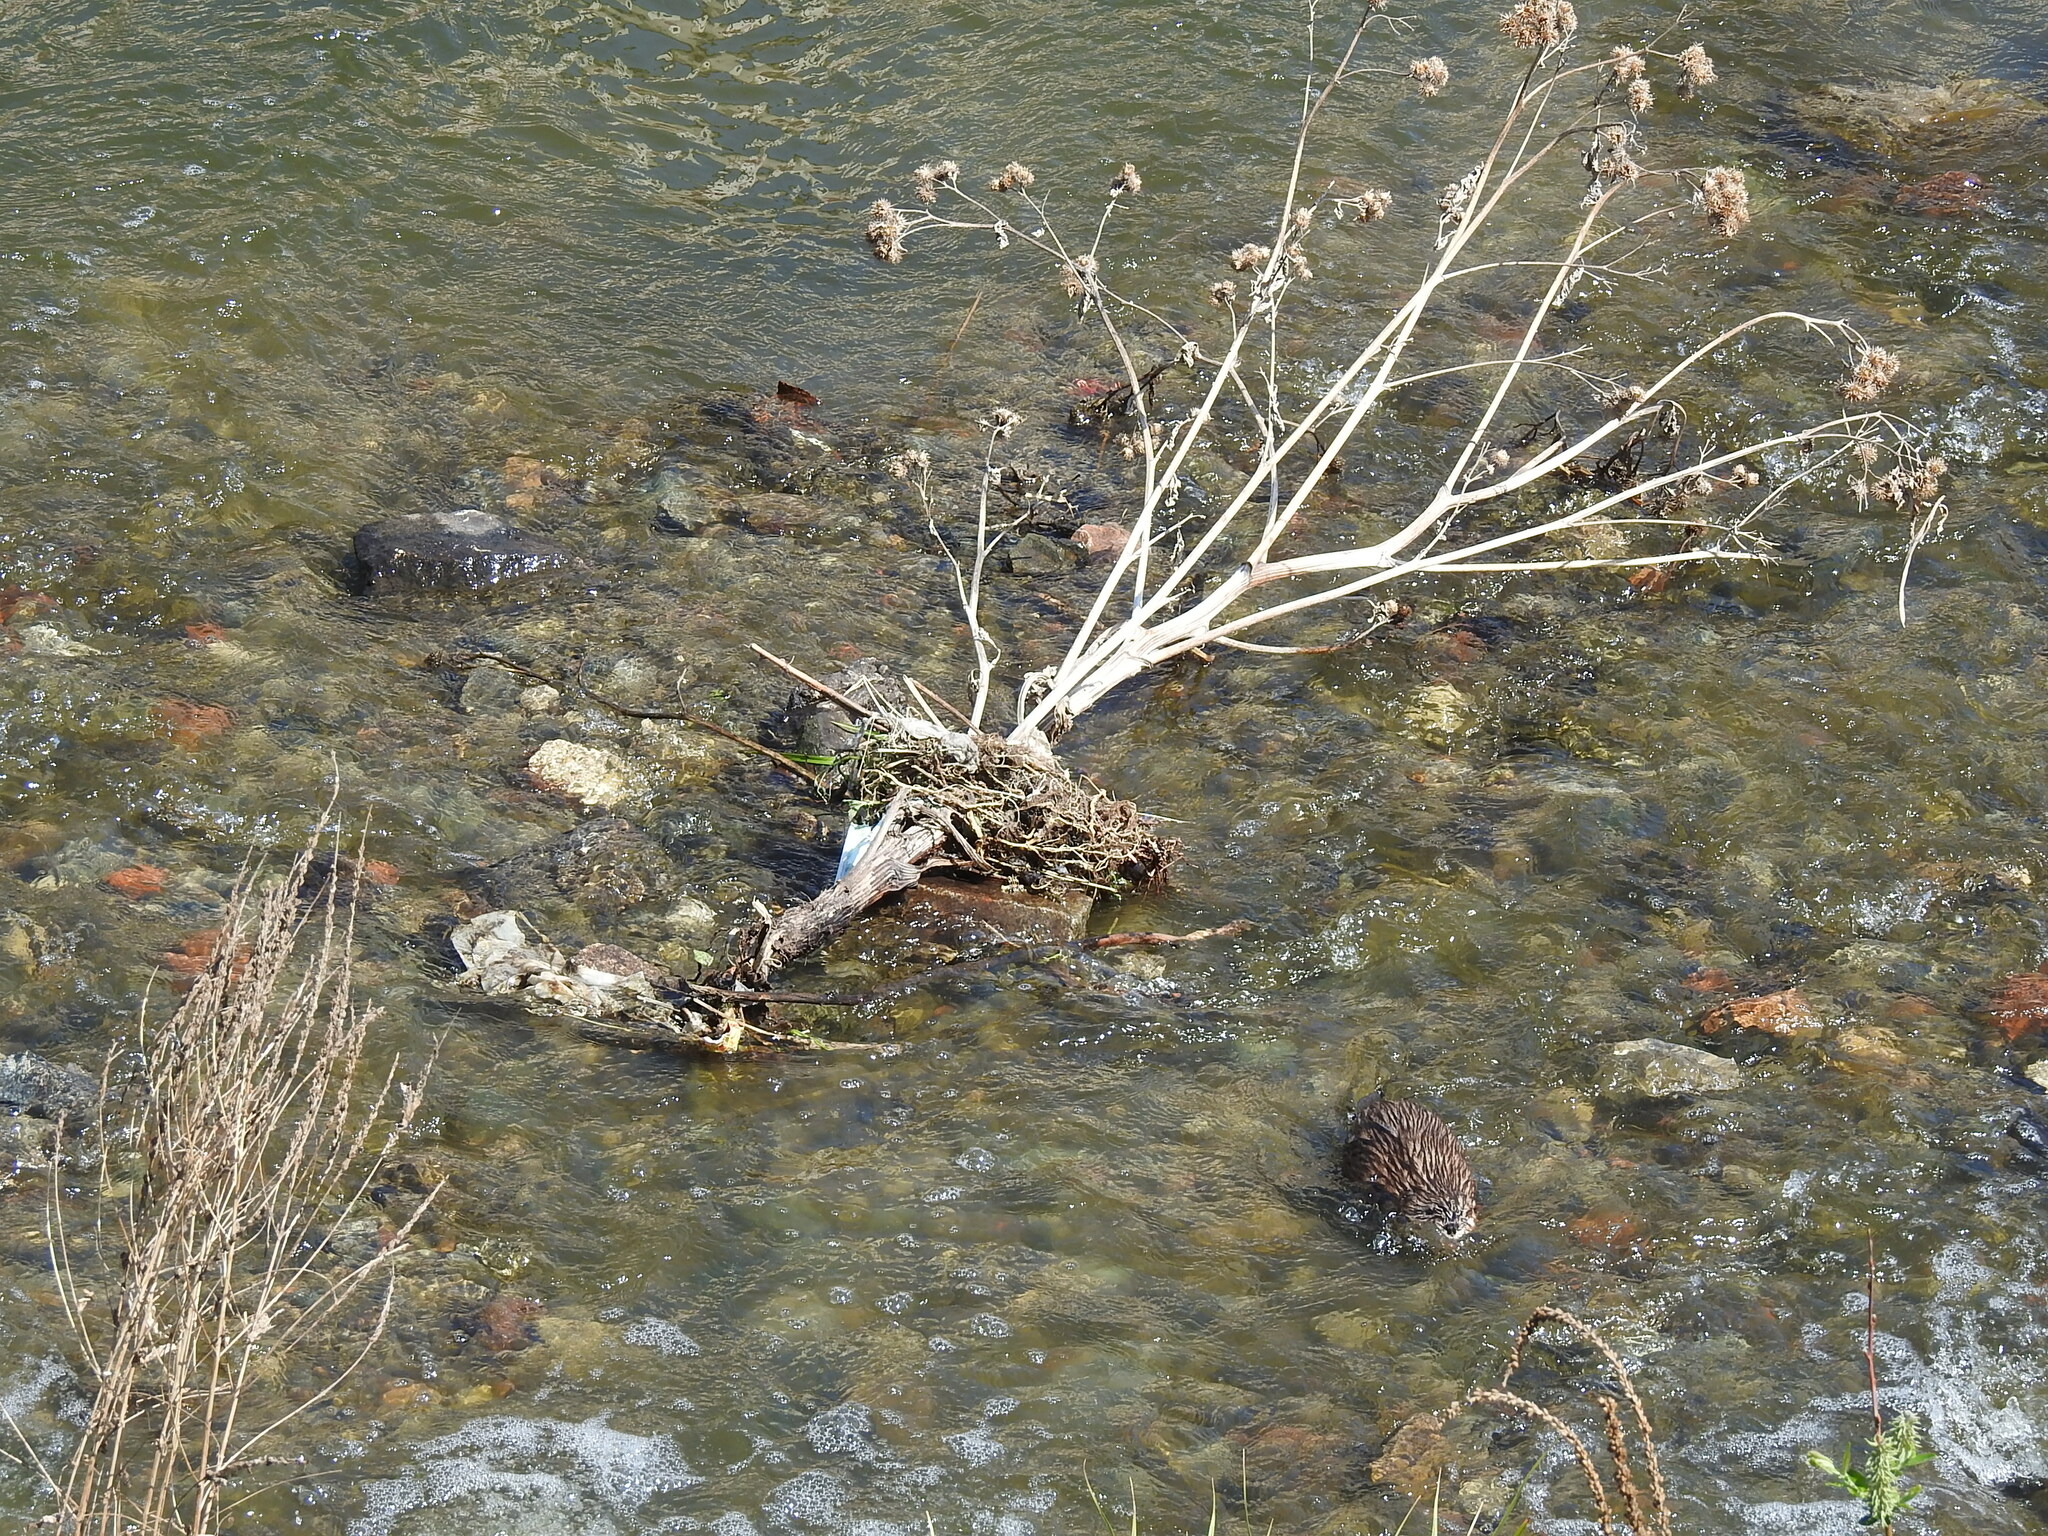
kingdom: Animalia
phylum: Chordata
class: Mammalia
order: Rodentia
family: Cricetidae
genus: Ondatra
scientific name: Ondatra zibethicus
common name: Muskrat
